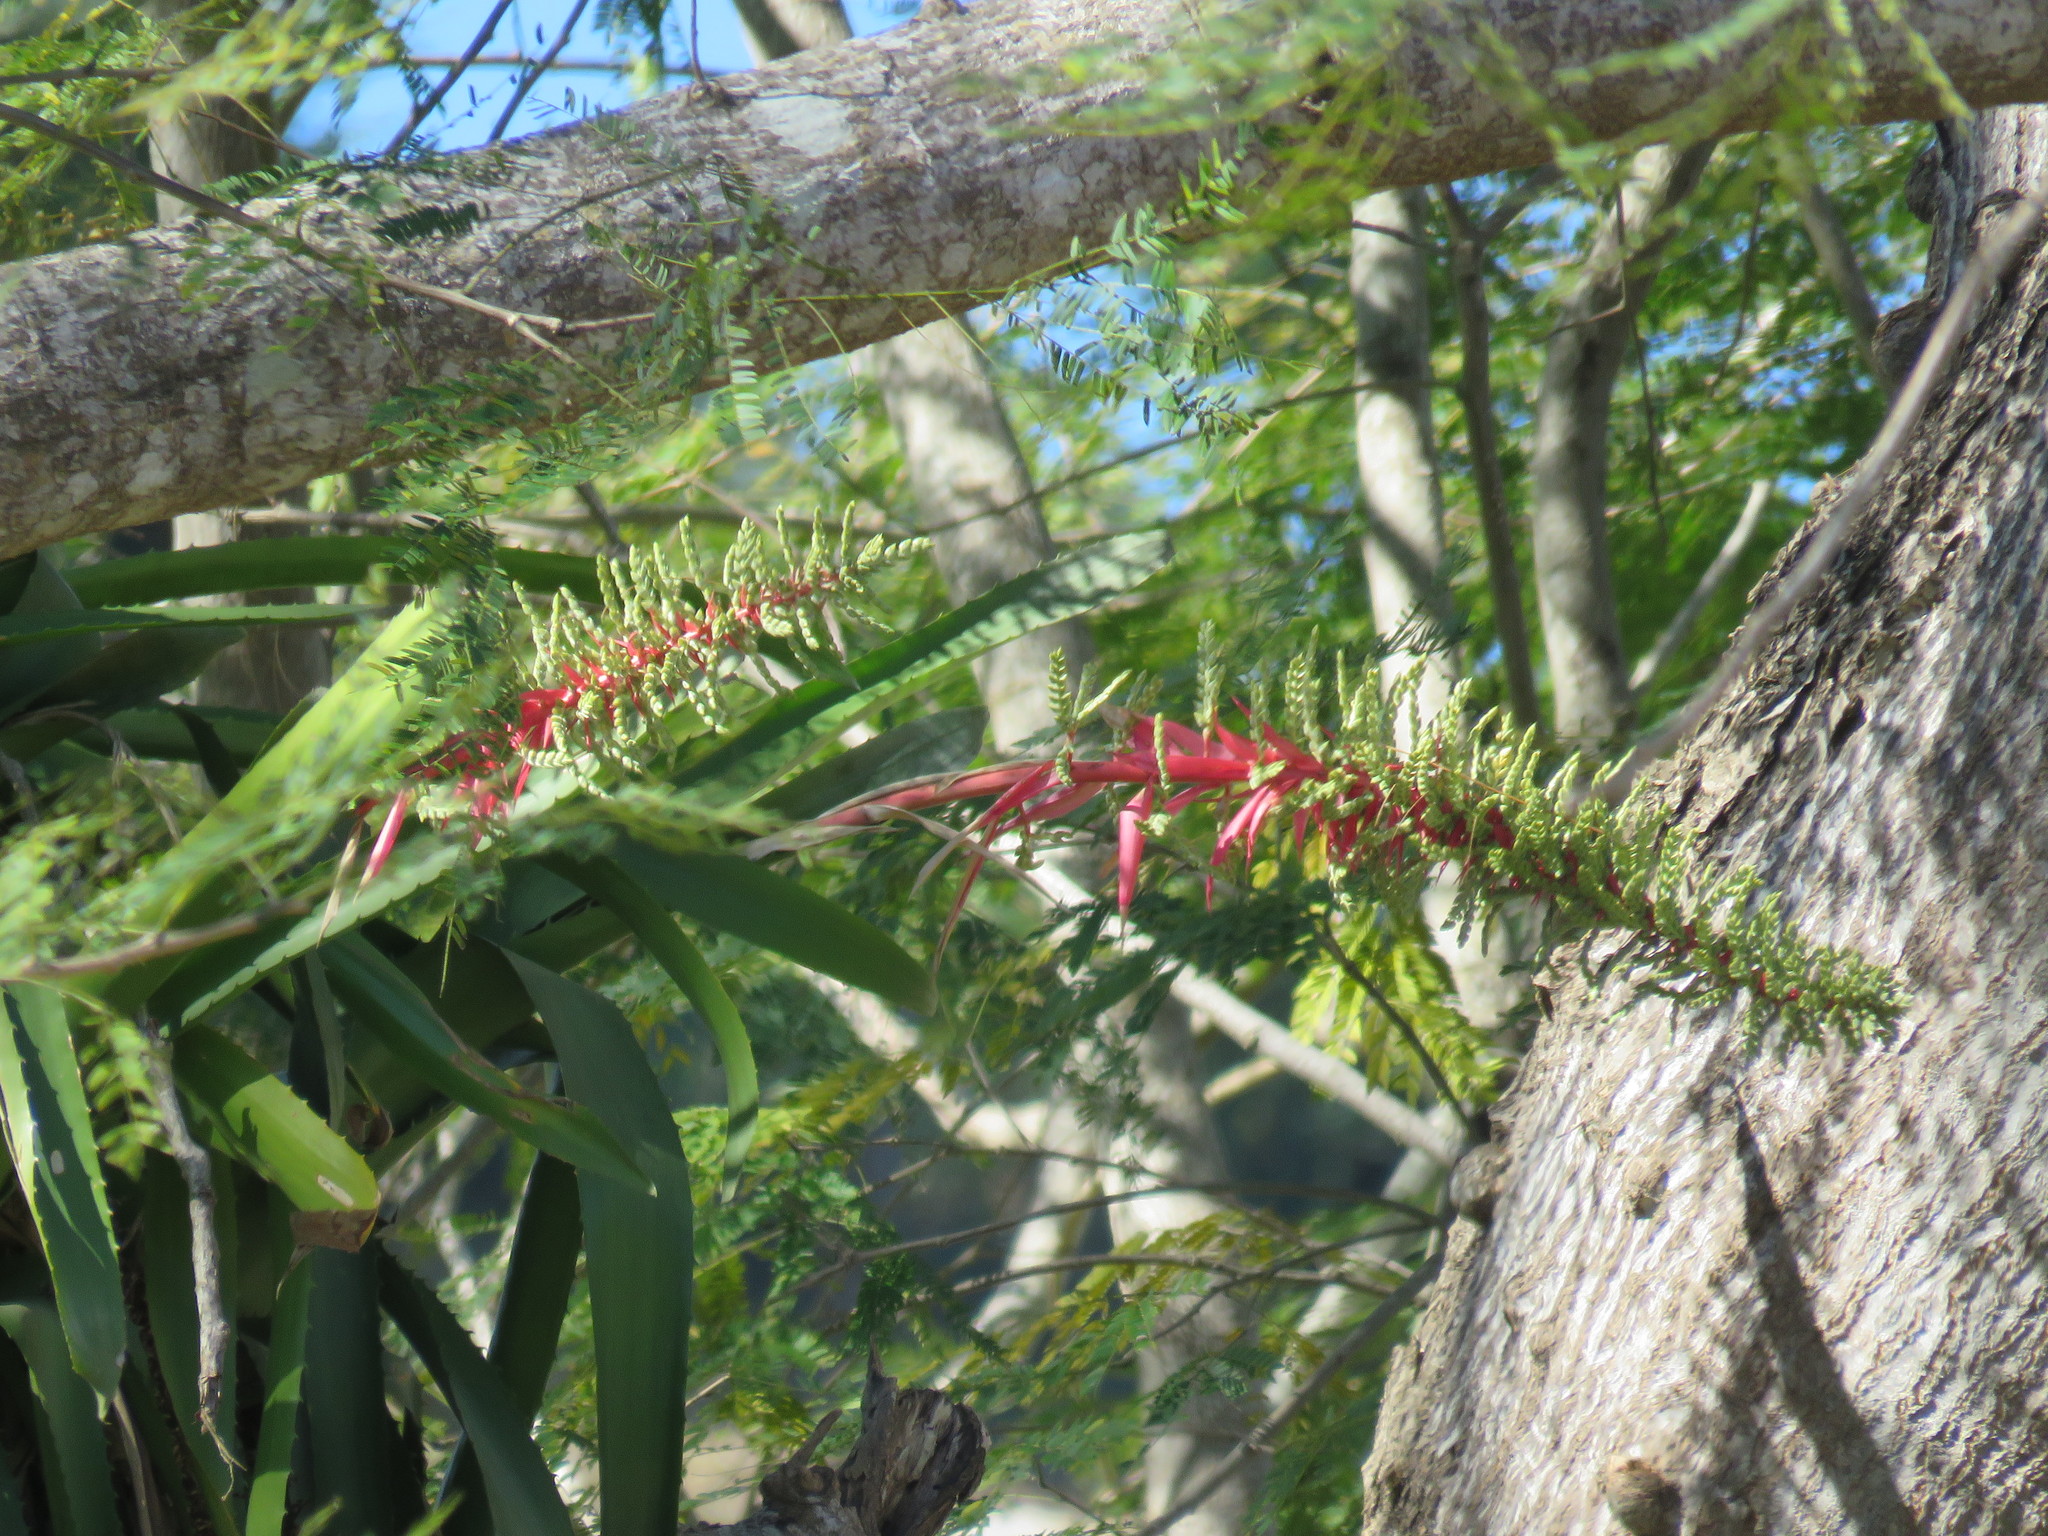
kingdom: Plantae
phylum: Tracheophyta
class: Liliopsida
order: Poales
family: Bromeliaceae
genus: Aechmea
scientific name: Aechmea bracteata
